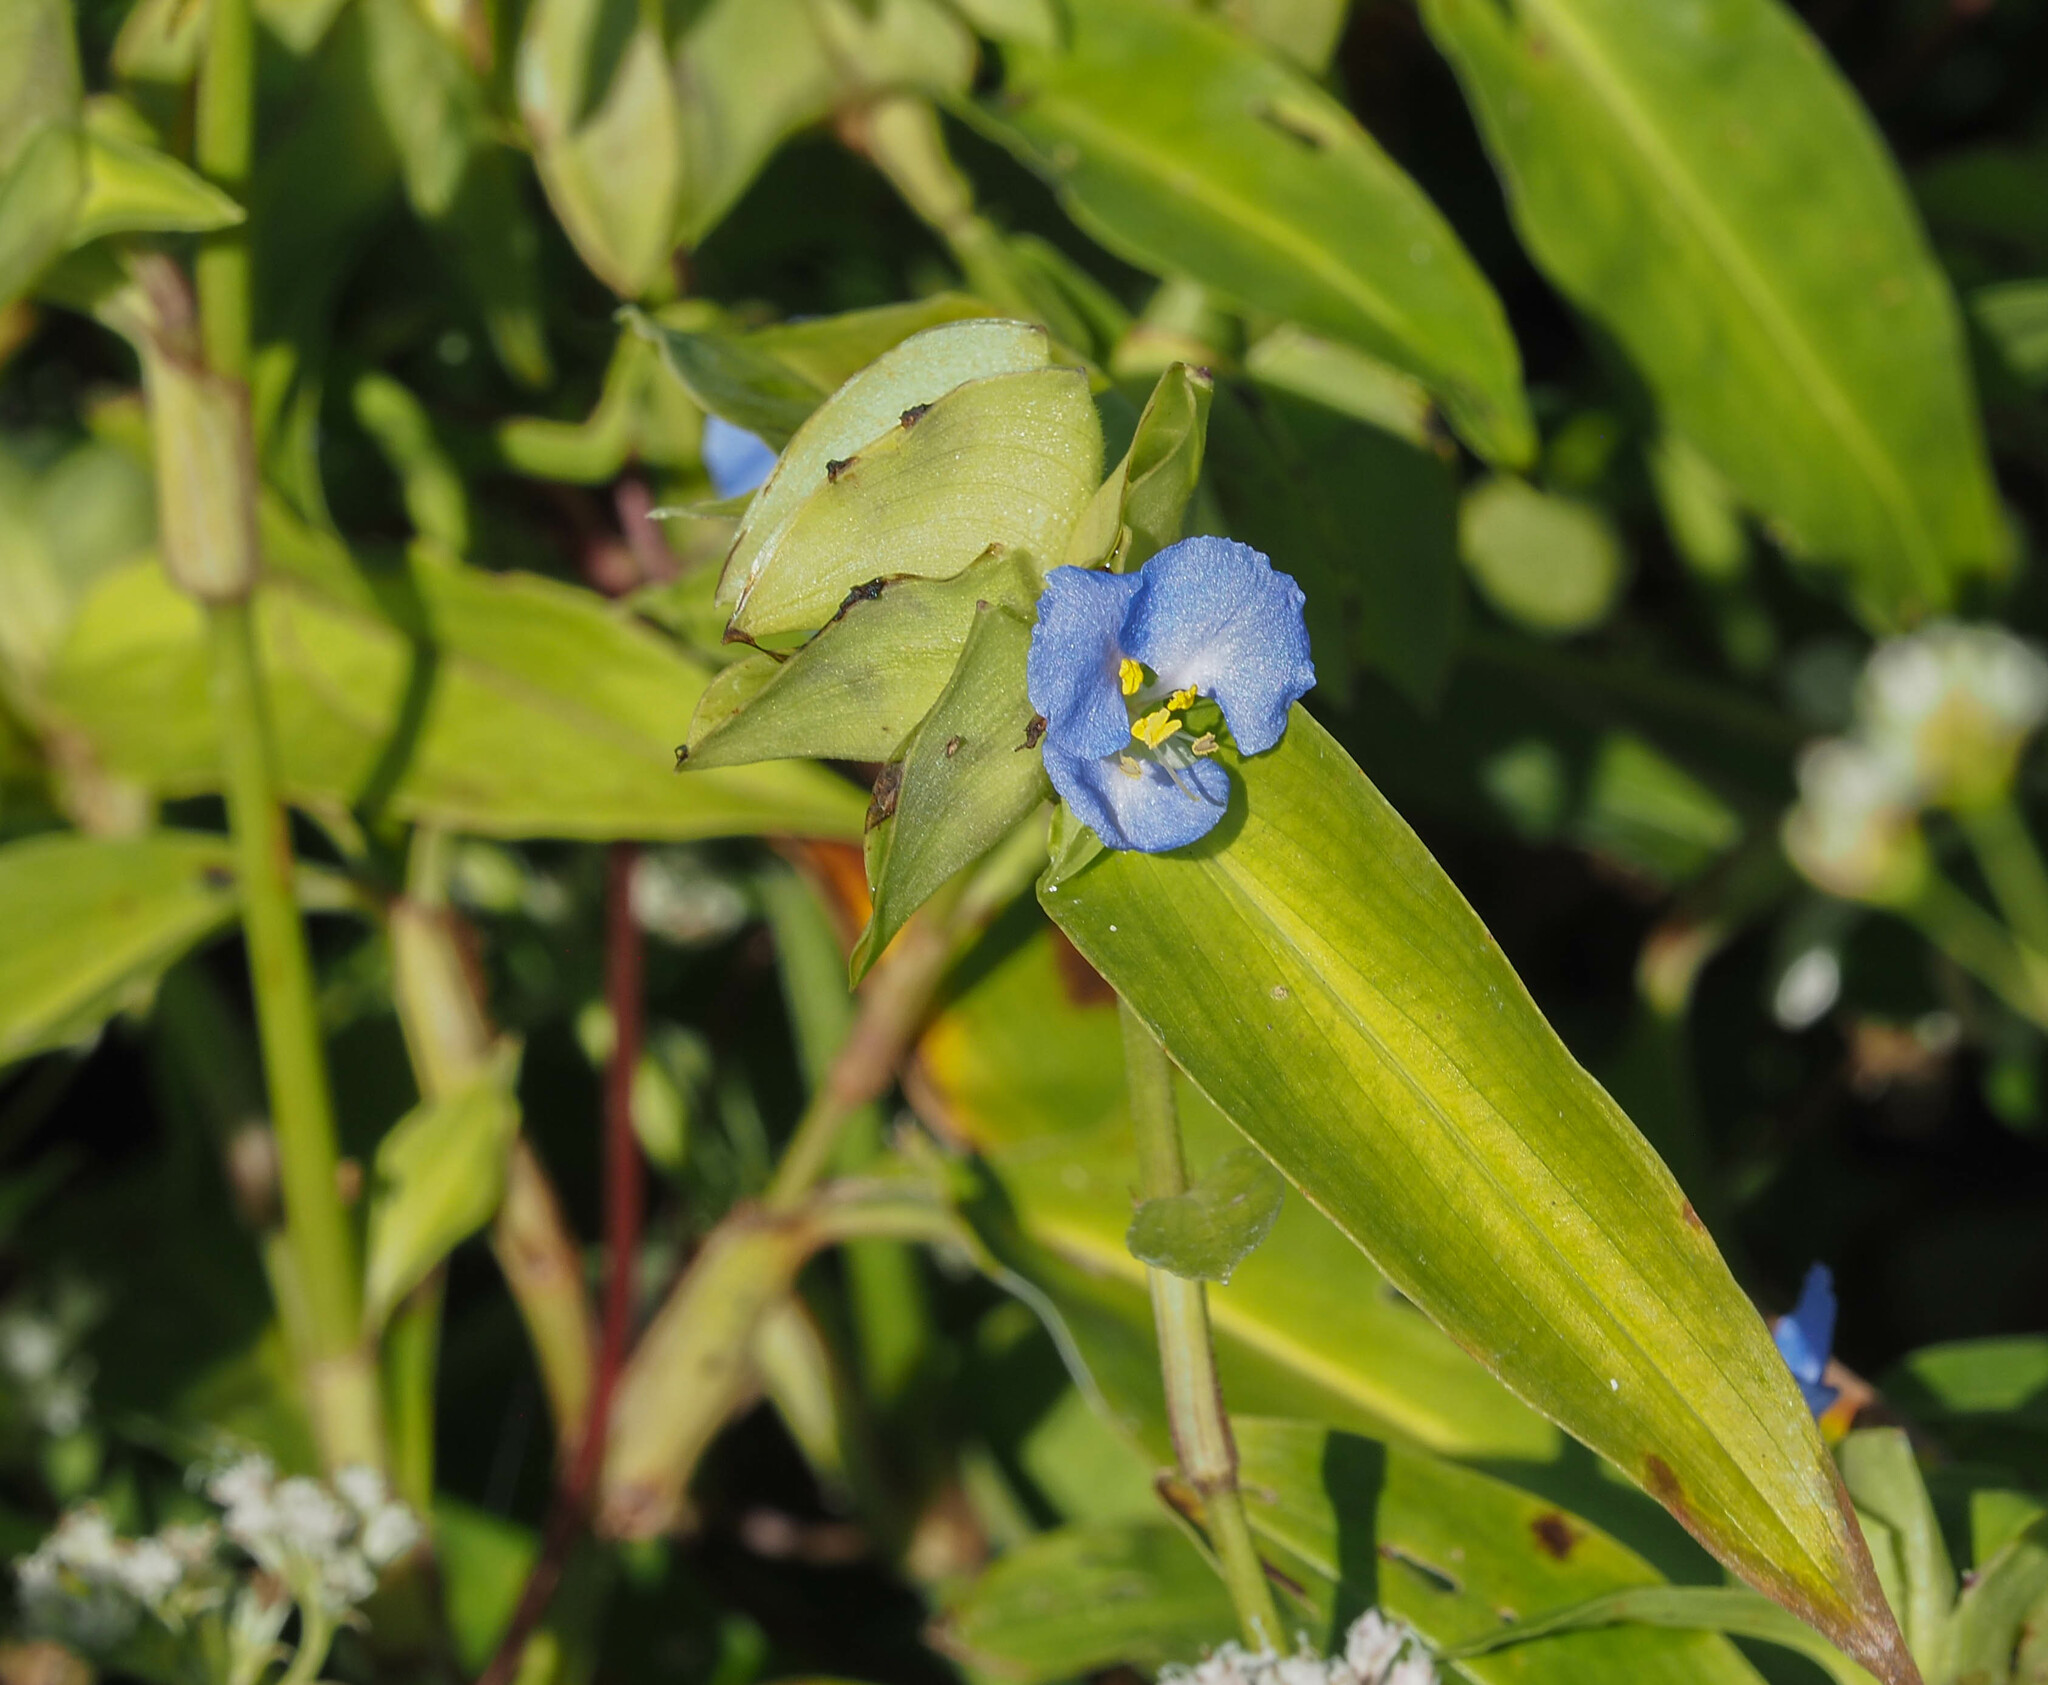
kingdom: Plantae
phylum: Tracheophyta
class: Liliopsida
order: Commelinales
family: Commelinaceae
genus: Commelina
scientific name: Commelina virginica
